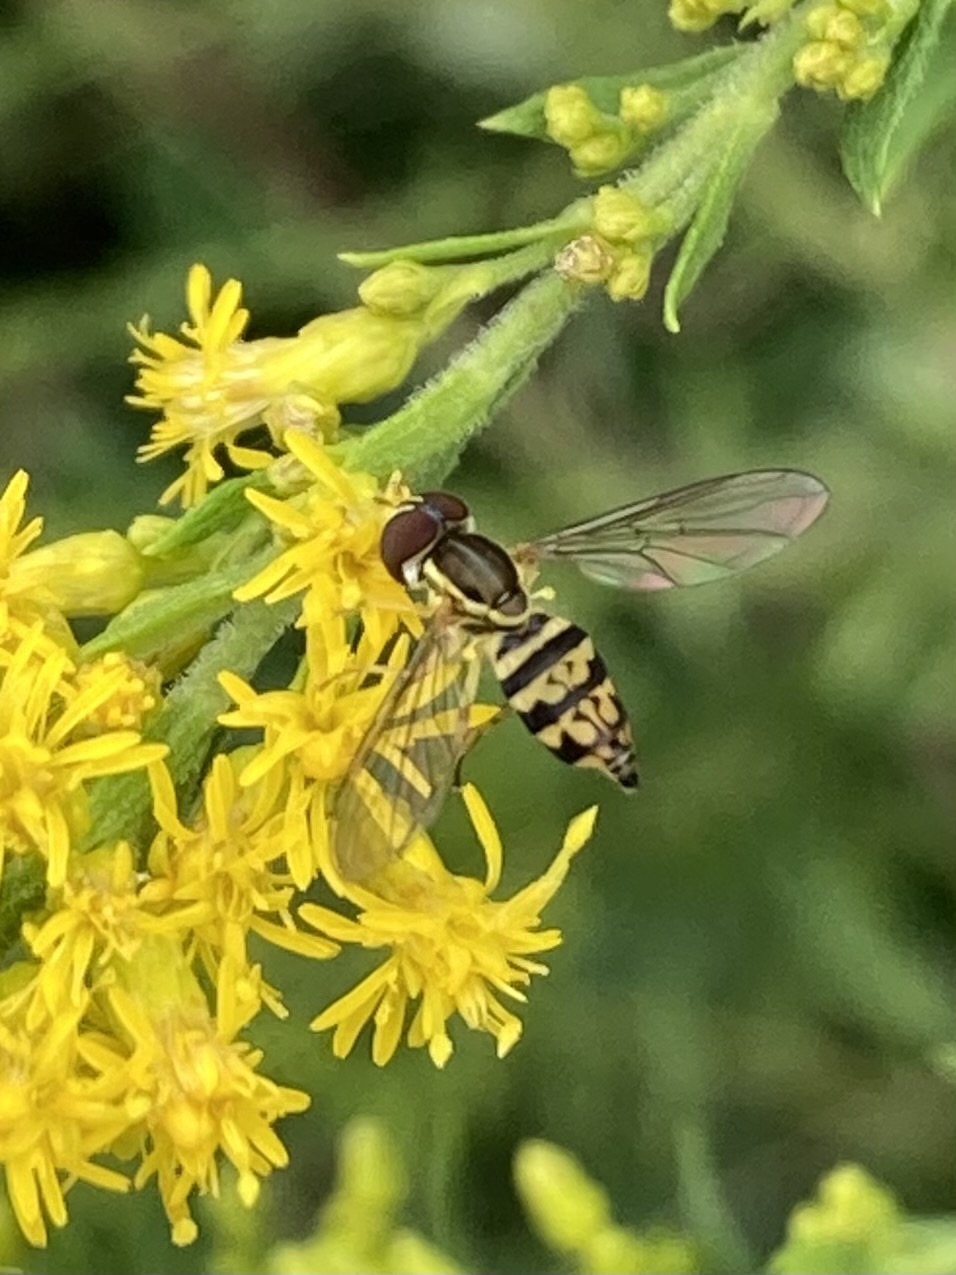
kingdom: Animalia
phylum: Arthropoda
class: Insecta
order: Diptera
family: Syrphidae
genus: Toxomerus
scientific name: Toxomerus geminatus
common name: Eastern calligrapher
